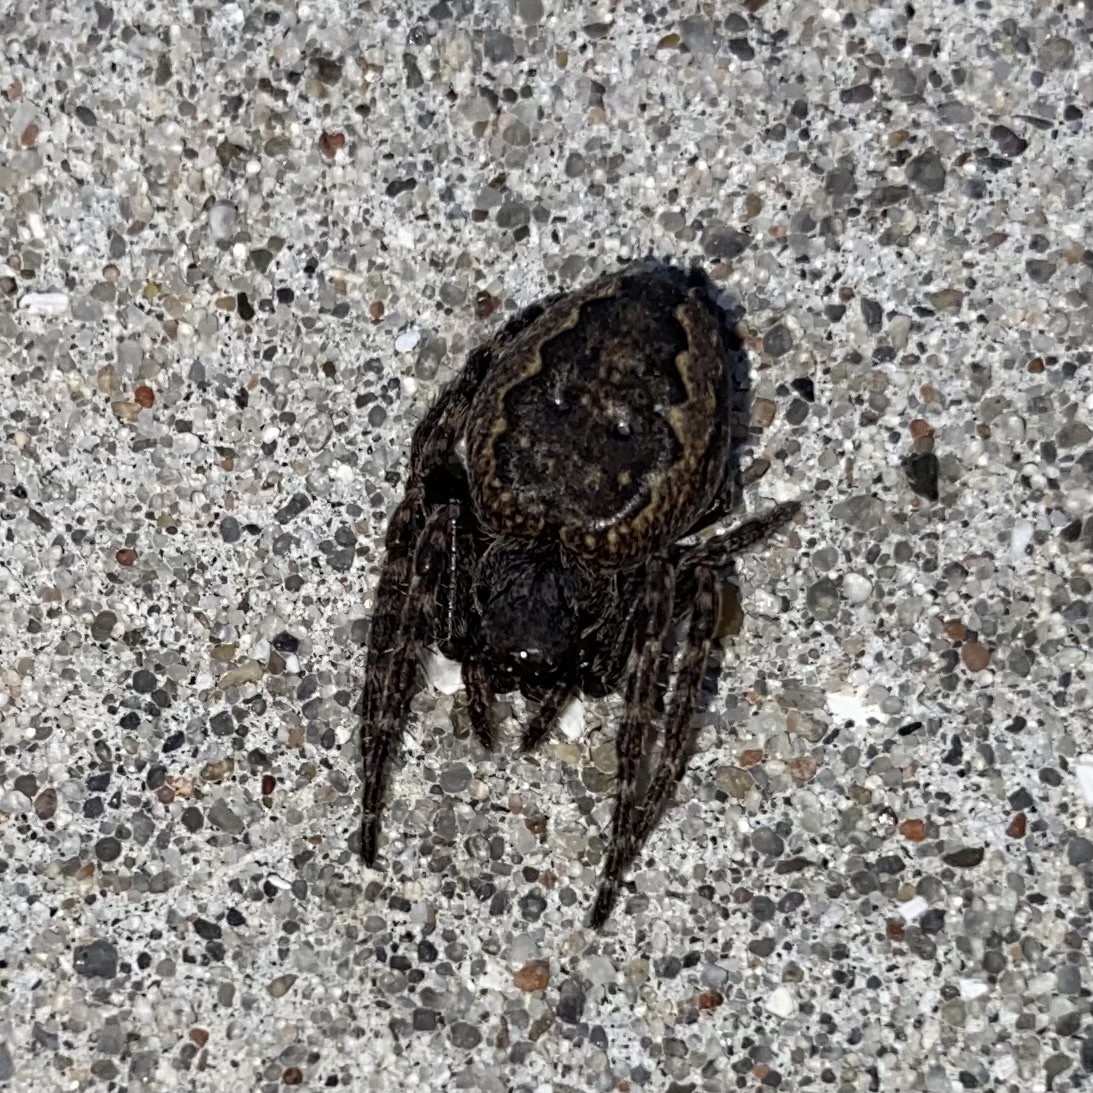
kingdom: Animalia
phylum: Arthropoda
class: Arachnida
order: Araneae
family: Araneidae
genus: Nuctenea
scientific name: Nuctenea umbratica
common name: Toad spider
